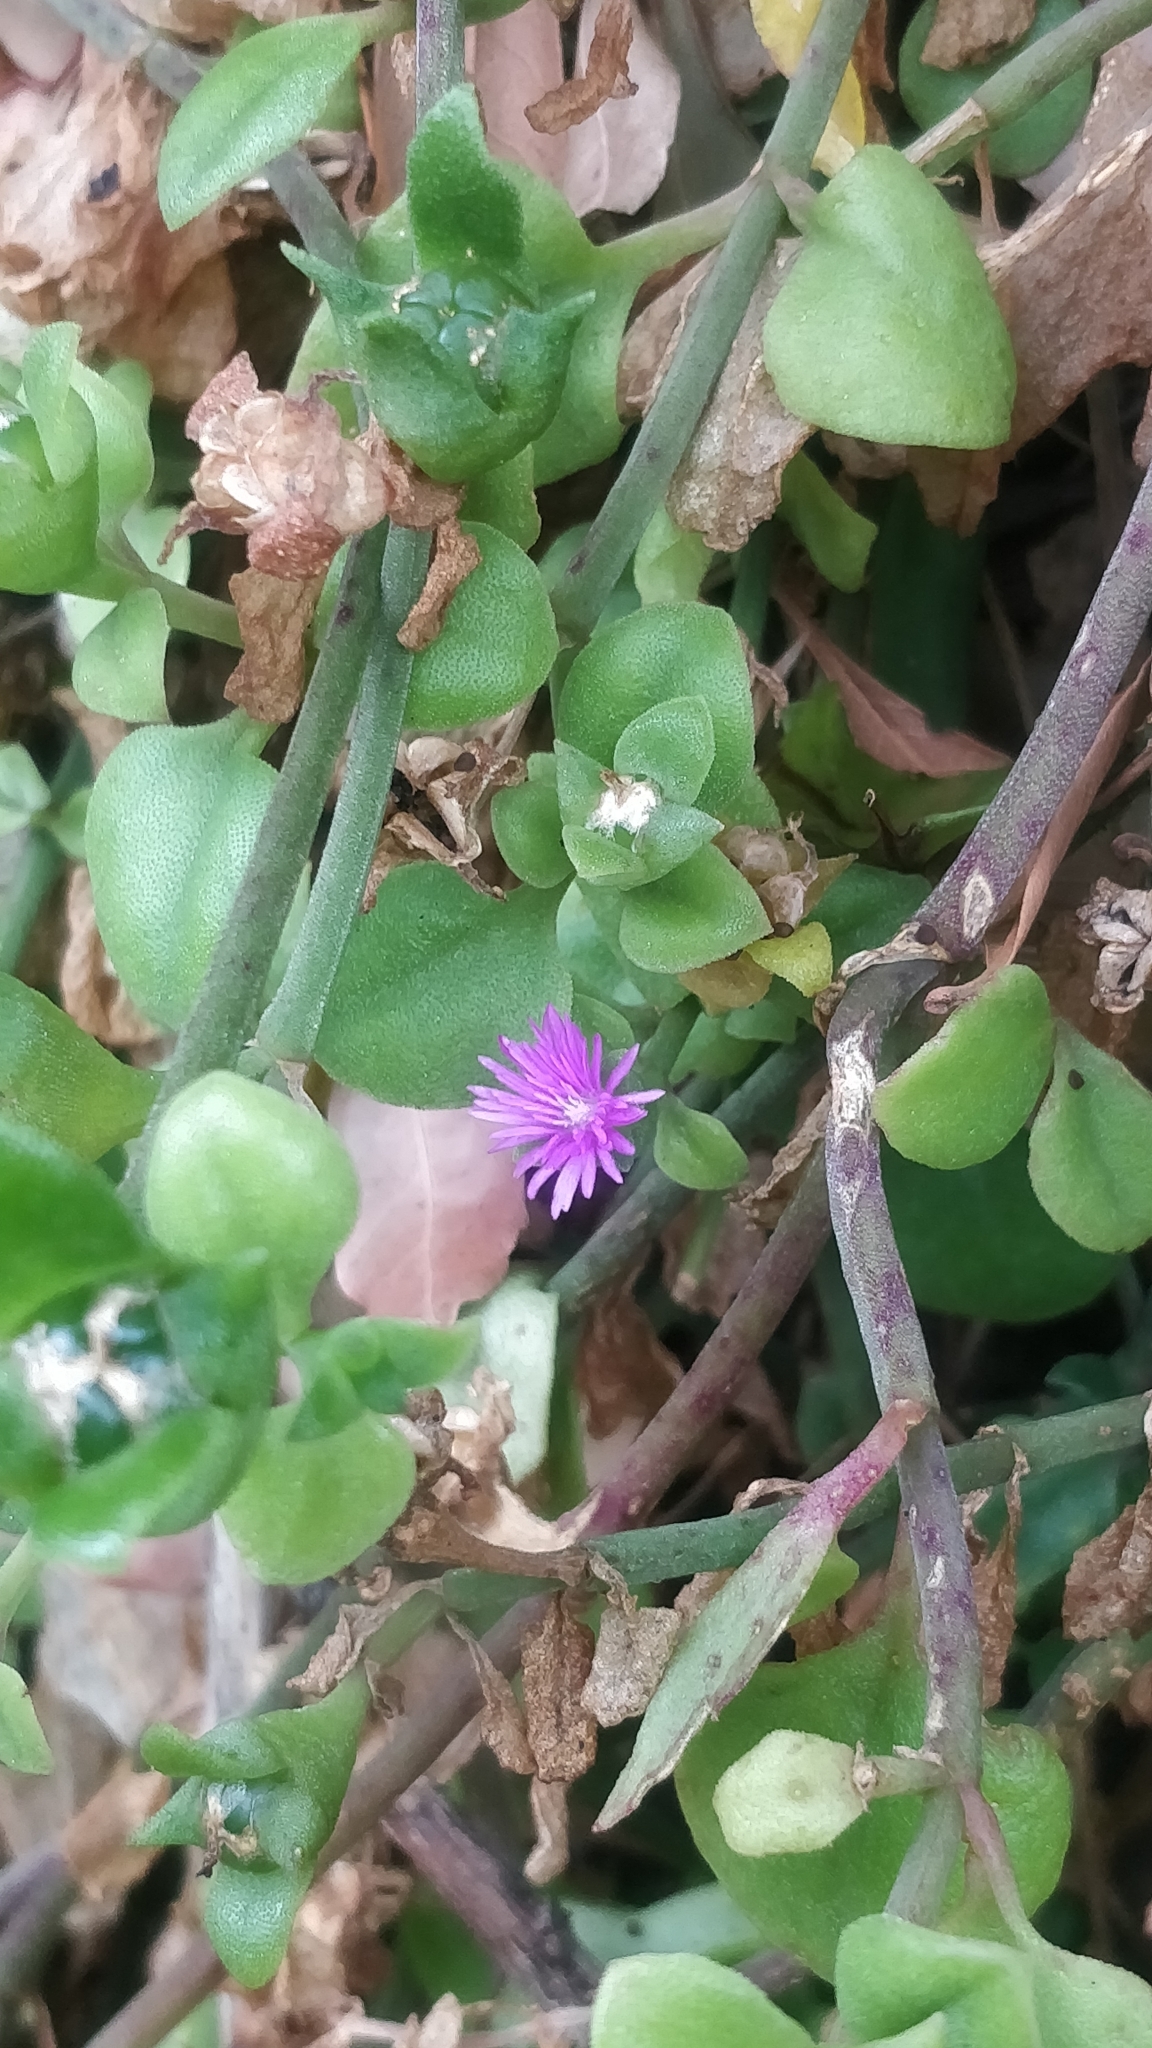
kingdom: Plantae
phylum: Tracheophyta
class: Magnoliopsida
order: Caryophyllales
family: Aizoaceae
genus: Mesembryanthemum
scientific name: Mesembryanthemum cordifolium
